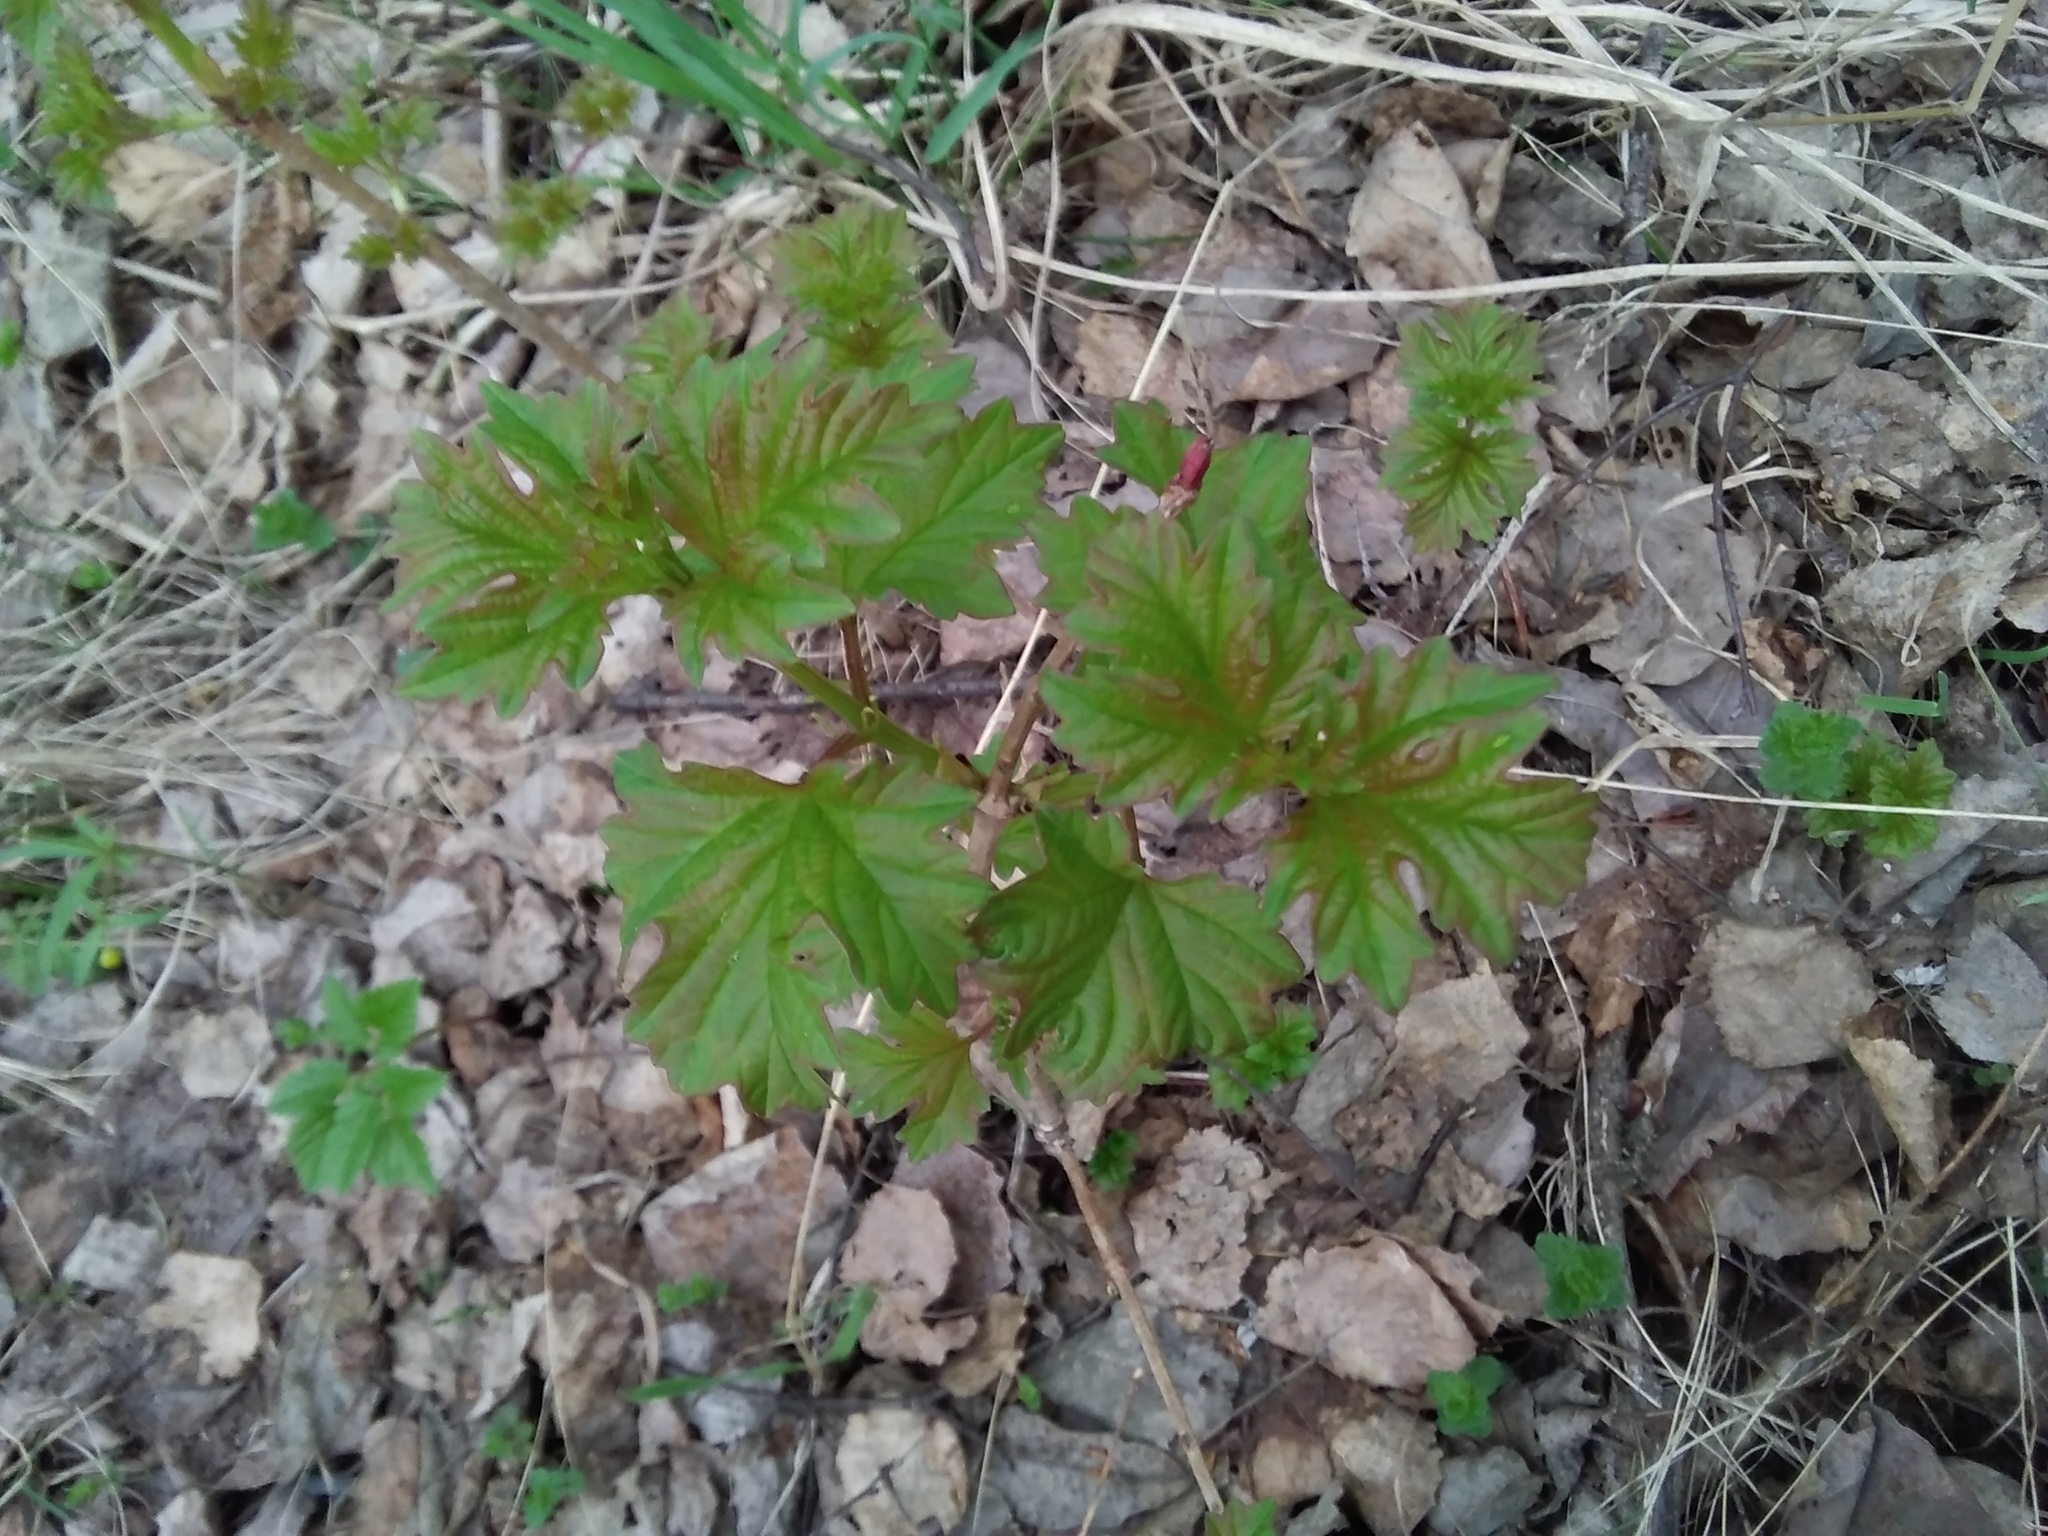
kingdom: Plantae
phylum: Tracheophyta
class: Magnoliopsida
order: Dipsacales
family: Viburnaceae
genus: Viburnum
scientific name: Viburnum opulus
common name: Guelder-rose
